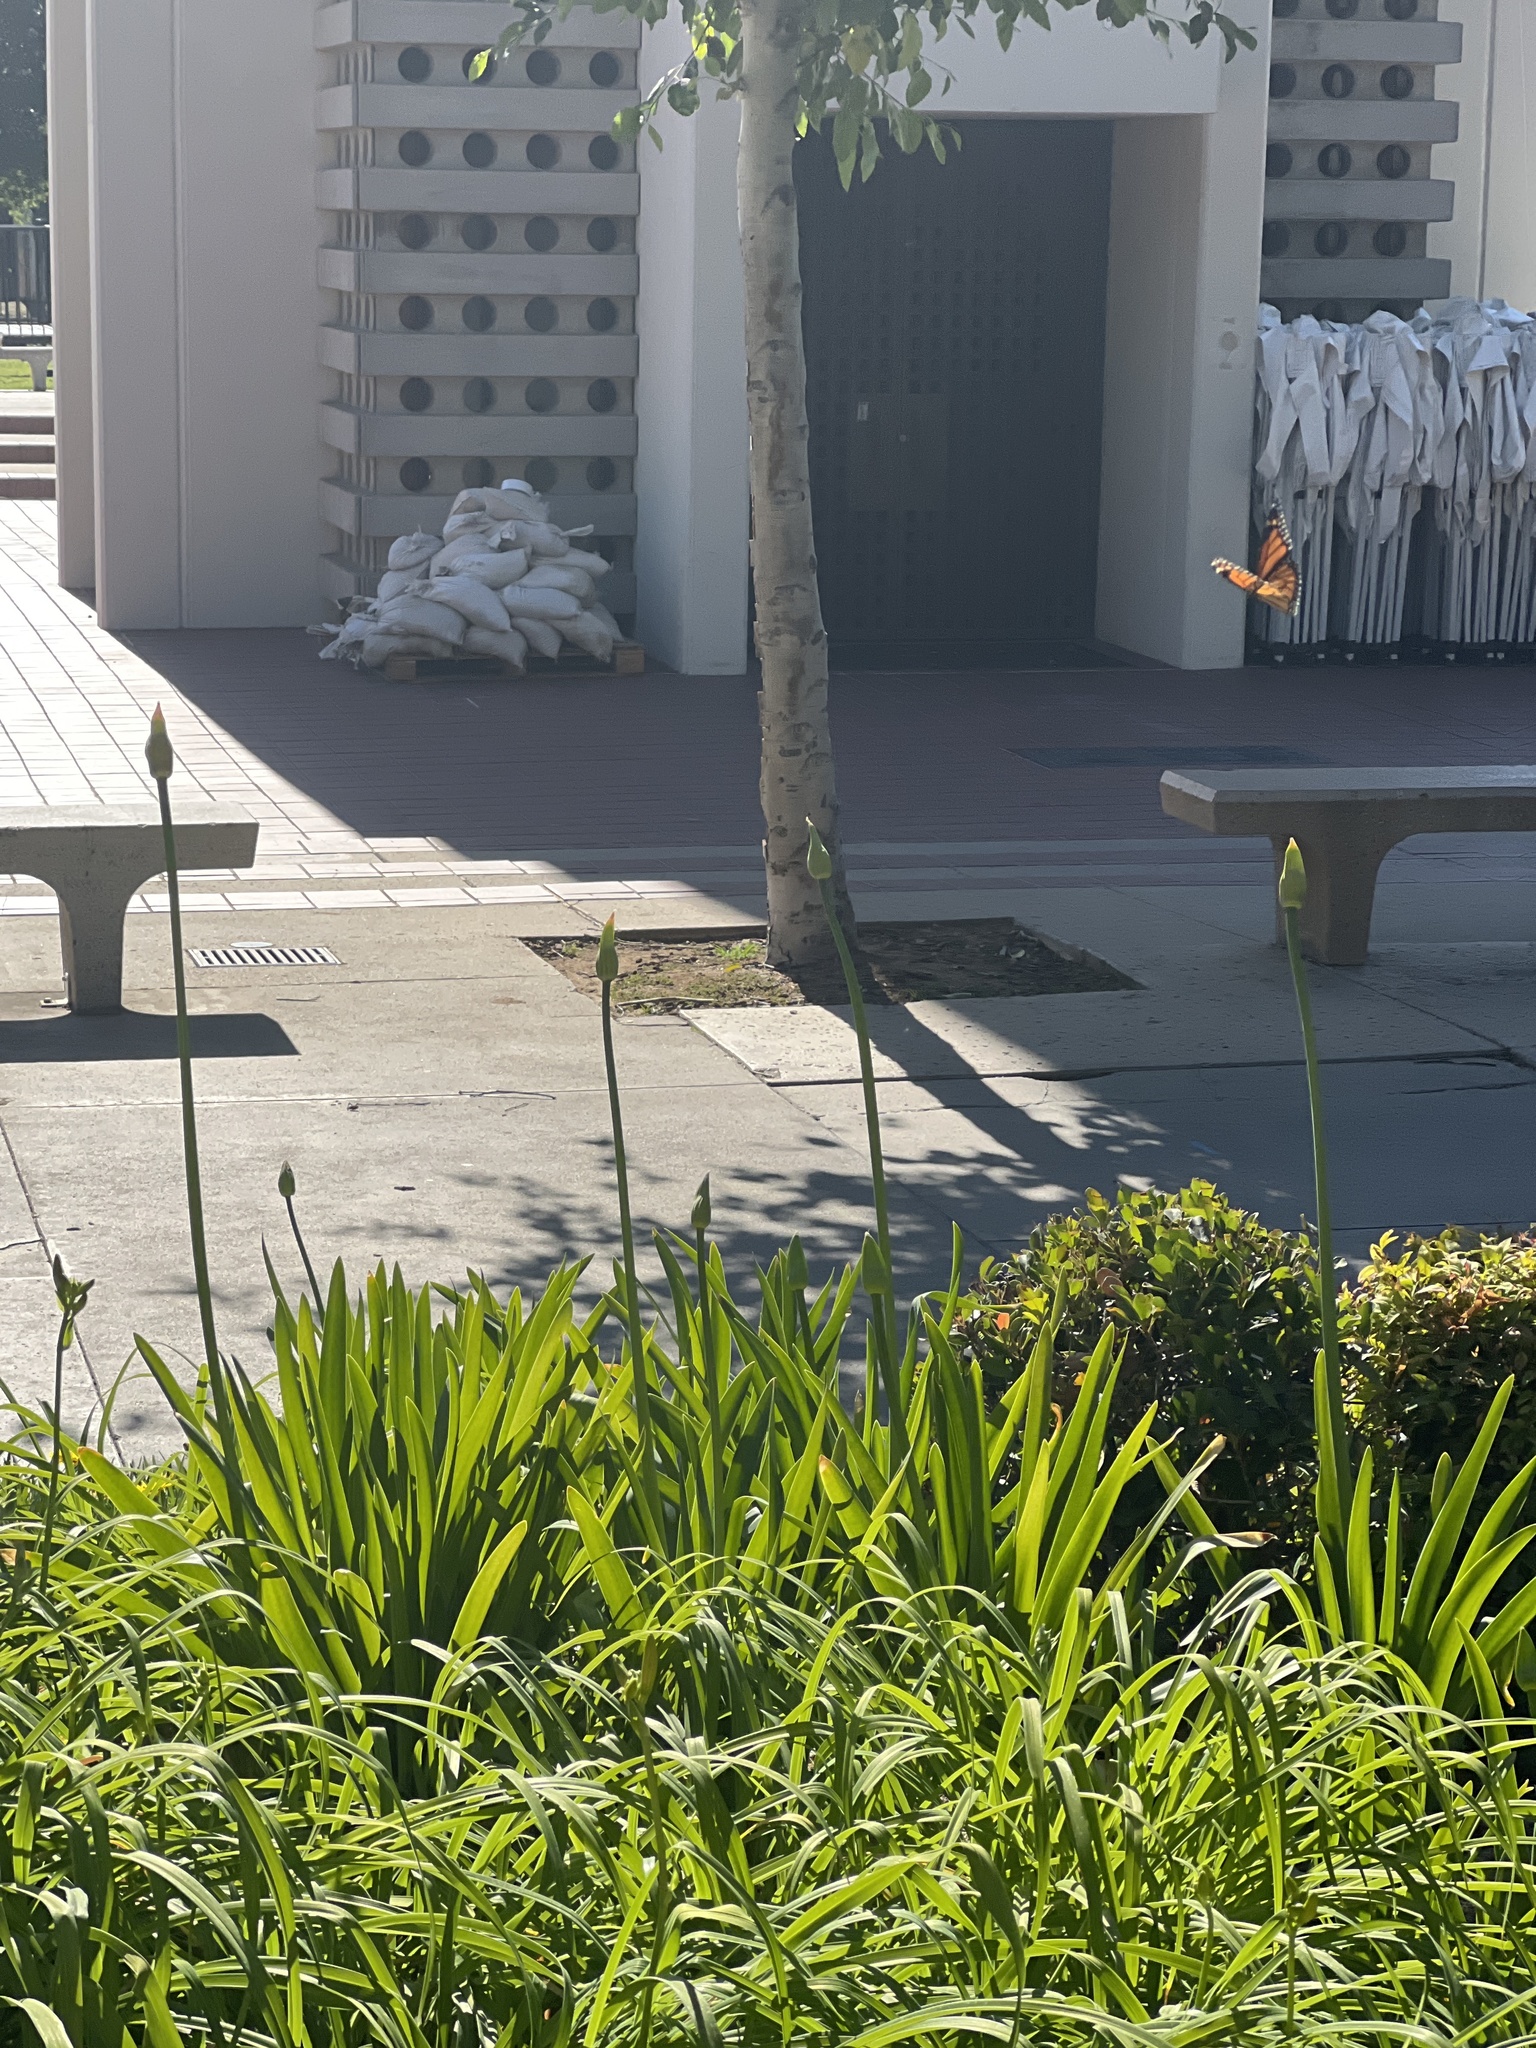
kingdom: Animalia
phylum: Arthropoda
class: Insecta
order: Lepidoptera
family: Nymphalidae
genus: Danaus
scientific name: Danaus plexippus
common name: Monarch
